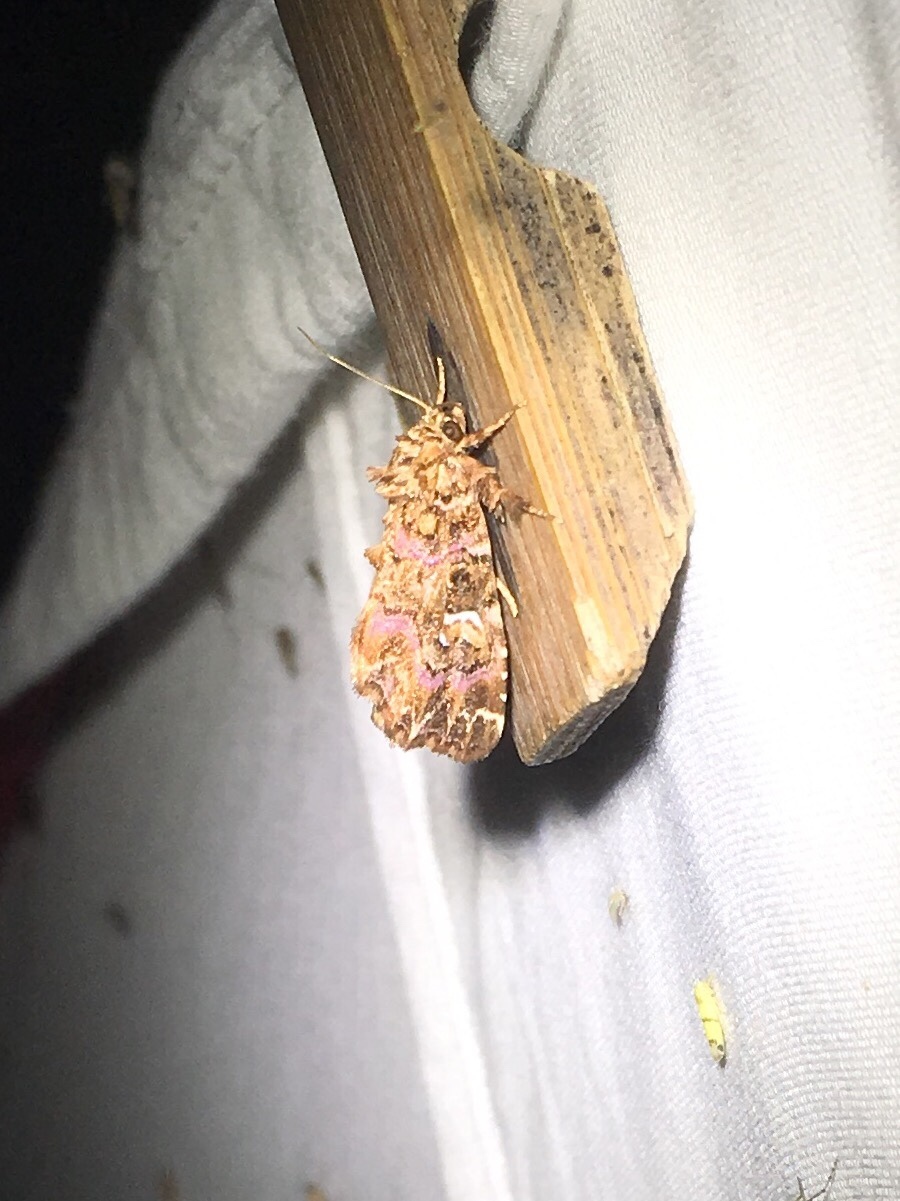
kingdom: Animalia
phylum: Arthropoda
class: Insecta
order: Lepidoptera
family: Noctuidae
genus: Callopistria
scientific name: Callopistria mollissima
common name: Pink-shaded fern moth
